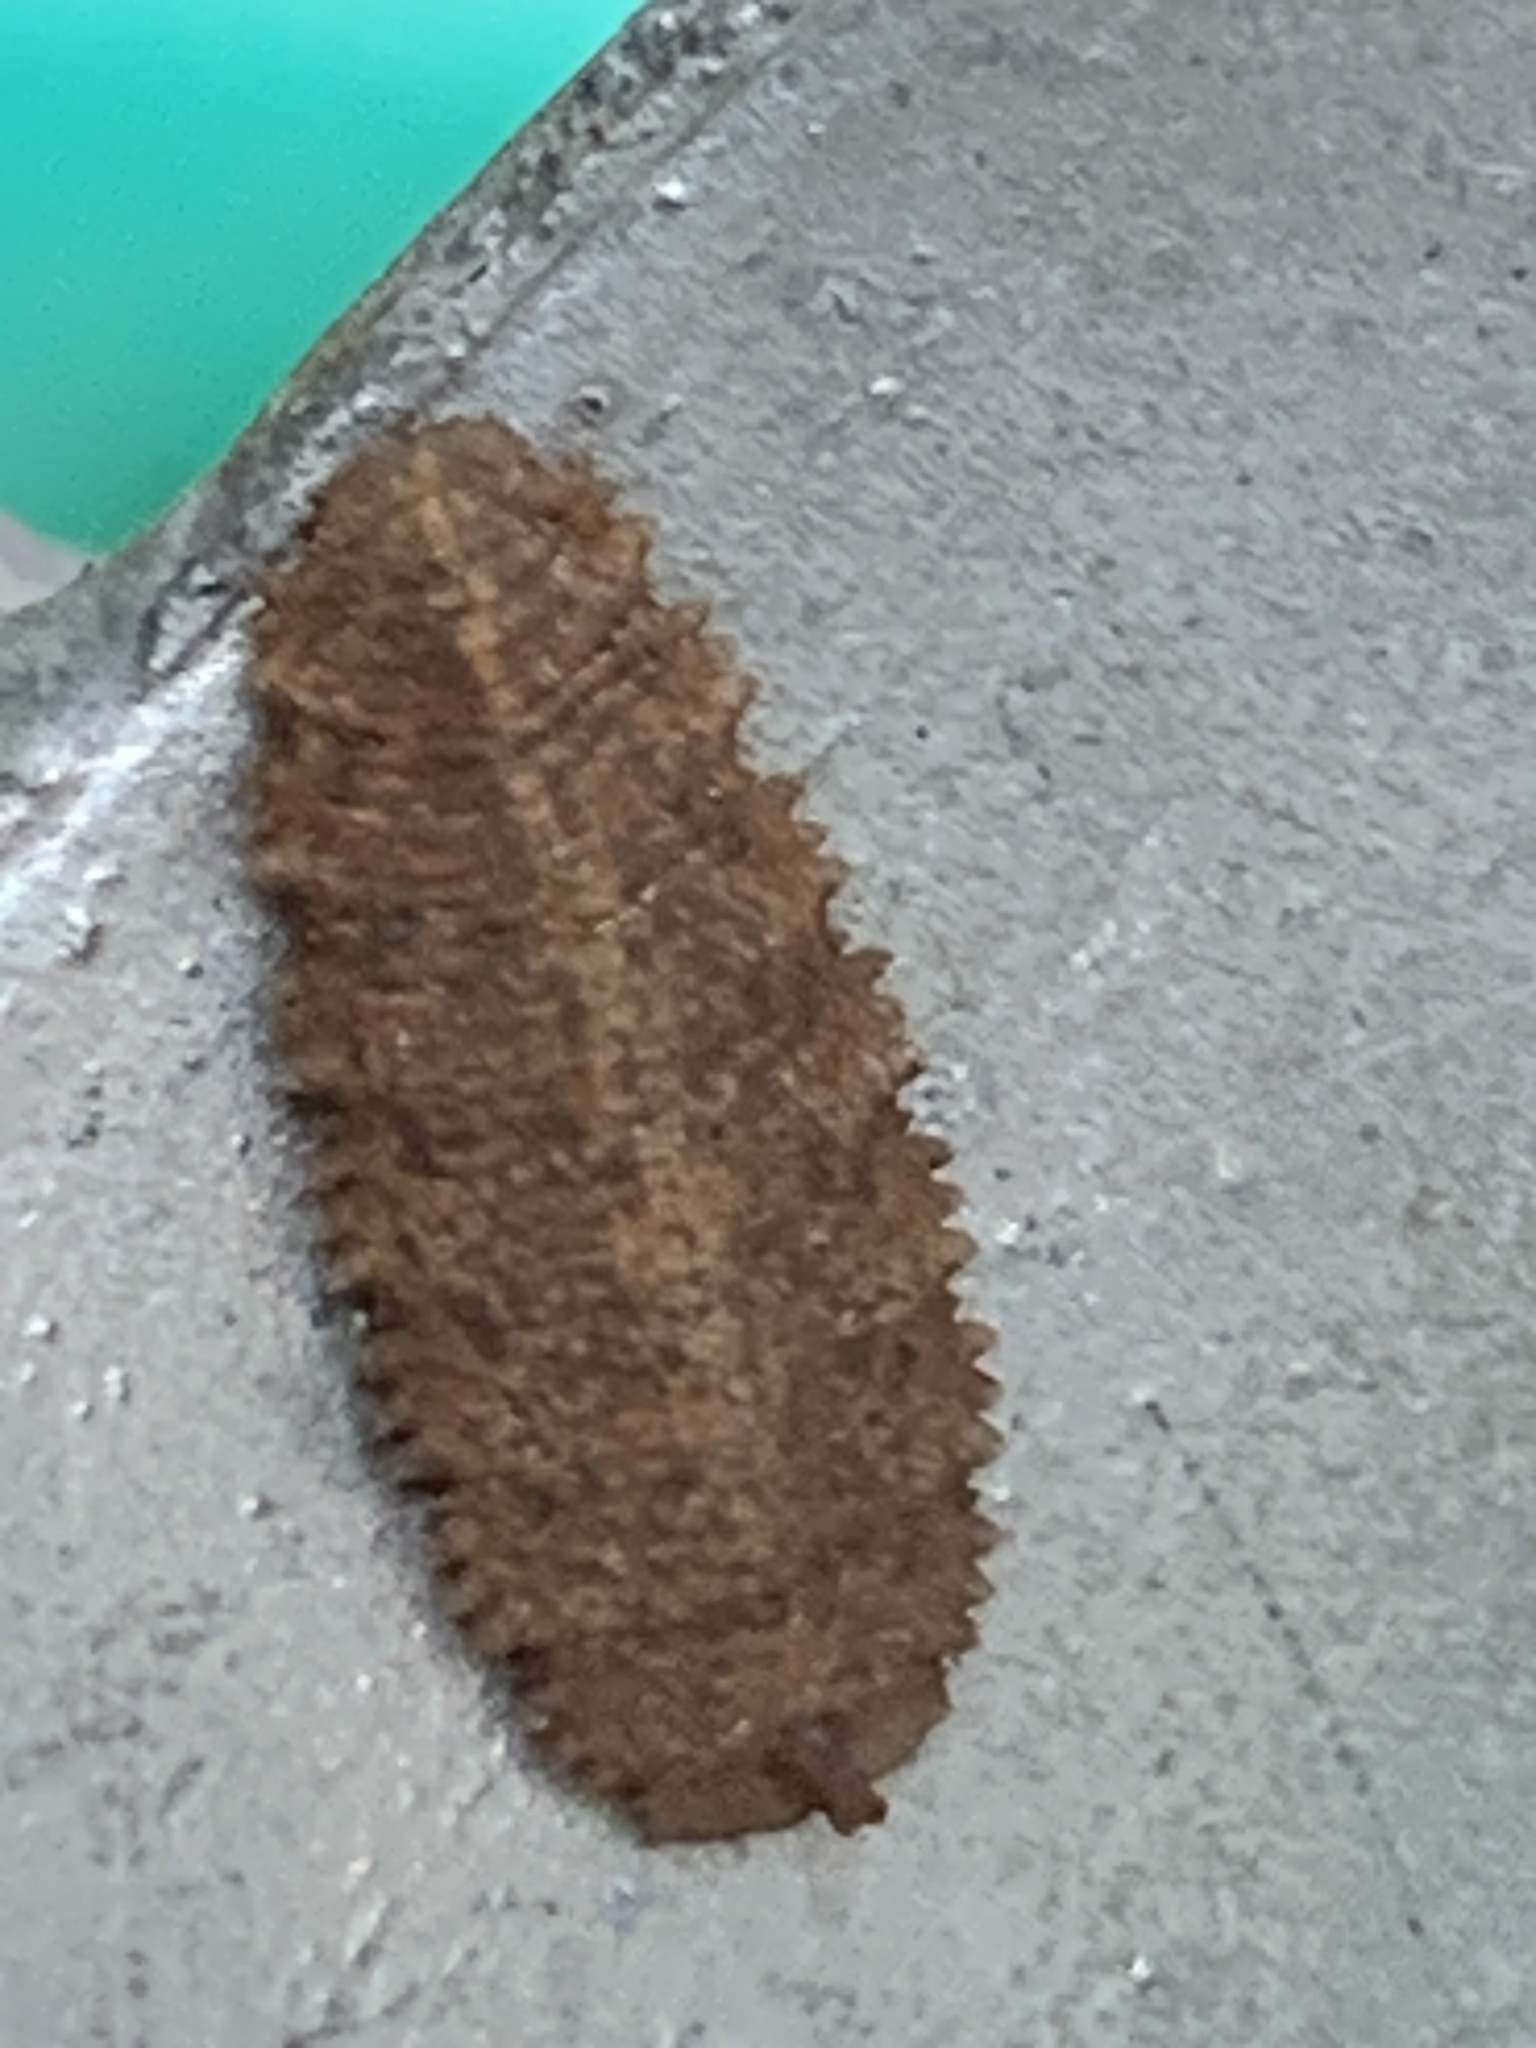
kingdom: Animalia
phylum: Arthropoda
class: Insecta
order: Diptera
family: Syrphidae
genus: Epistrophella
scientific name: Epistrophella emarginata
